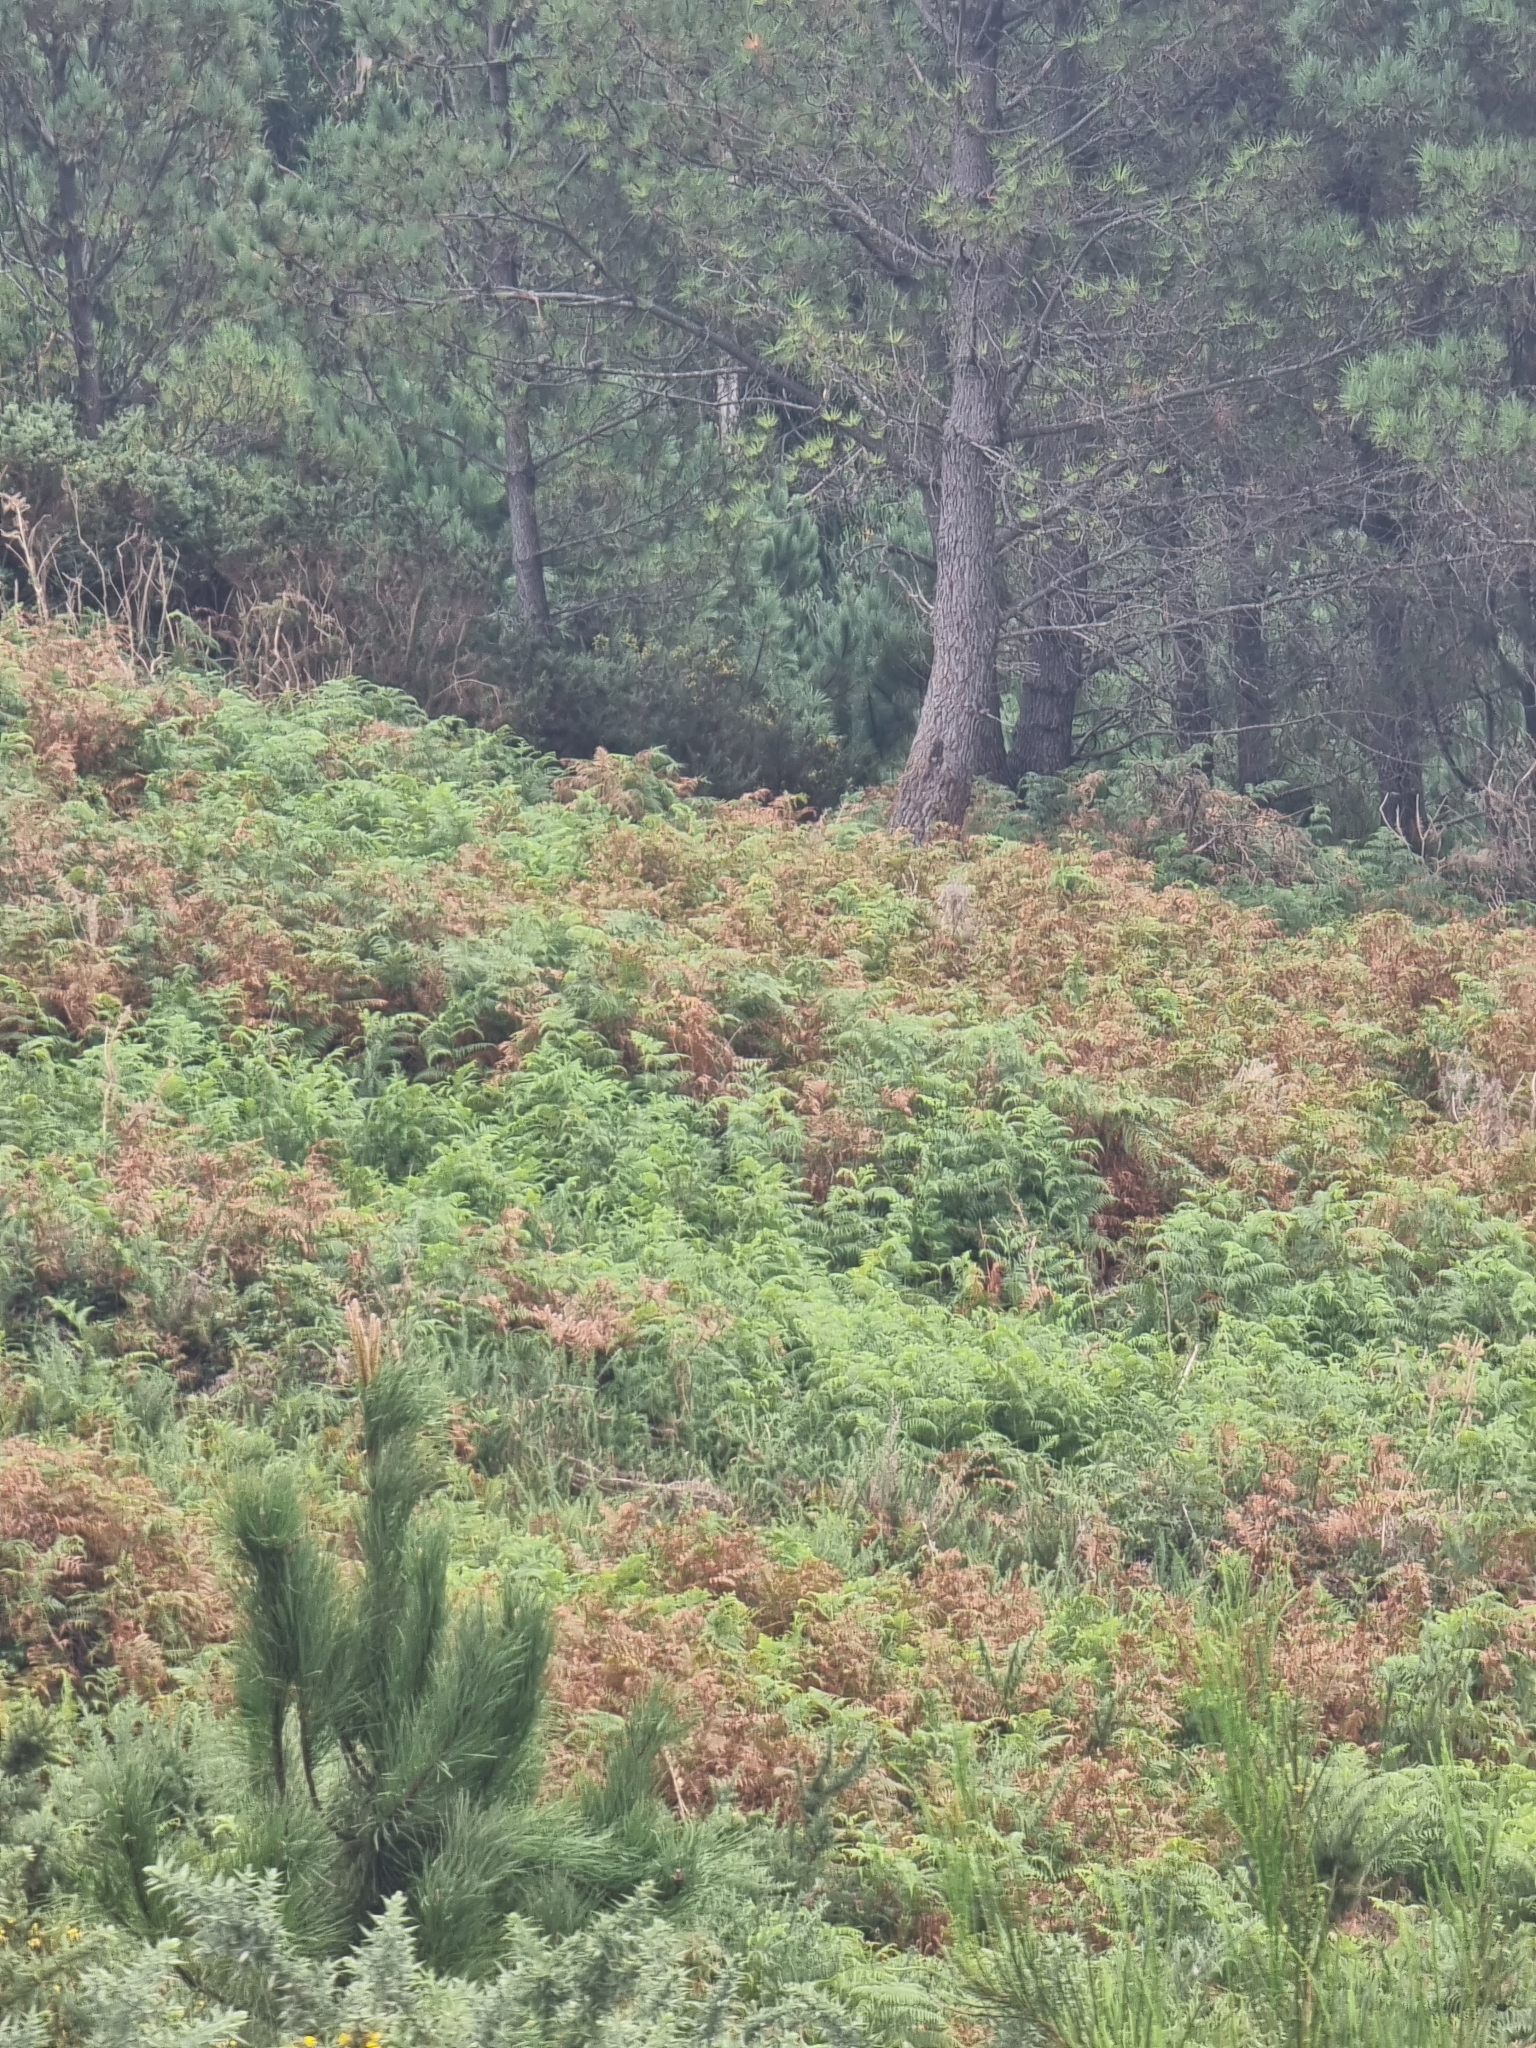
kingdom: Plantae
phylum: Tracheophyta
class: Polypodiopsida
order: Polypodiales
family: Dennstaedtiaceae
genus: Pteridium
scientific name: Pteridium aquilinum
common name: Bracken
